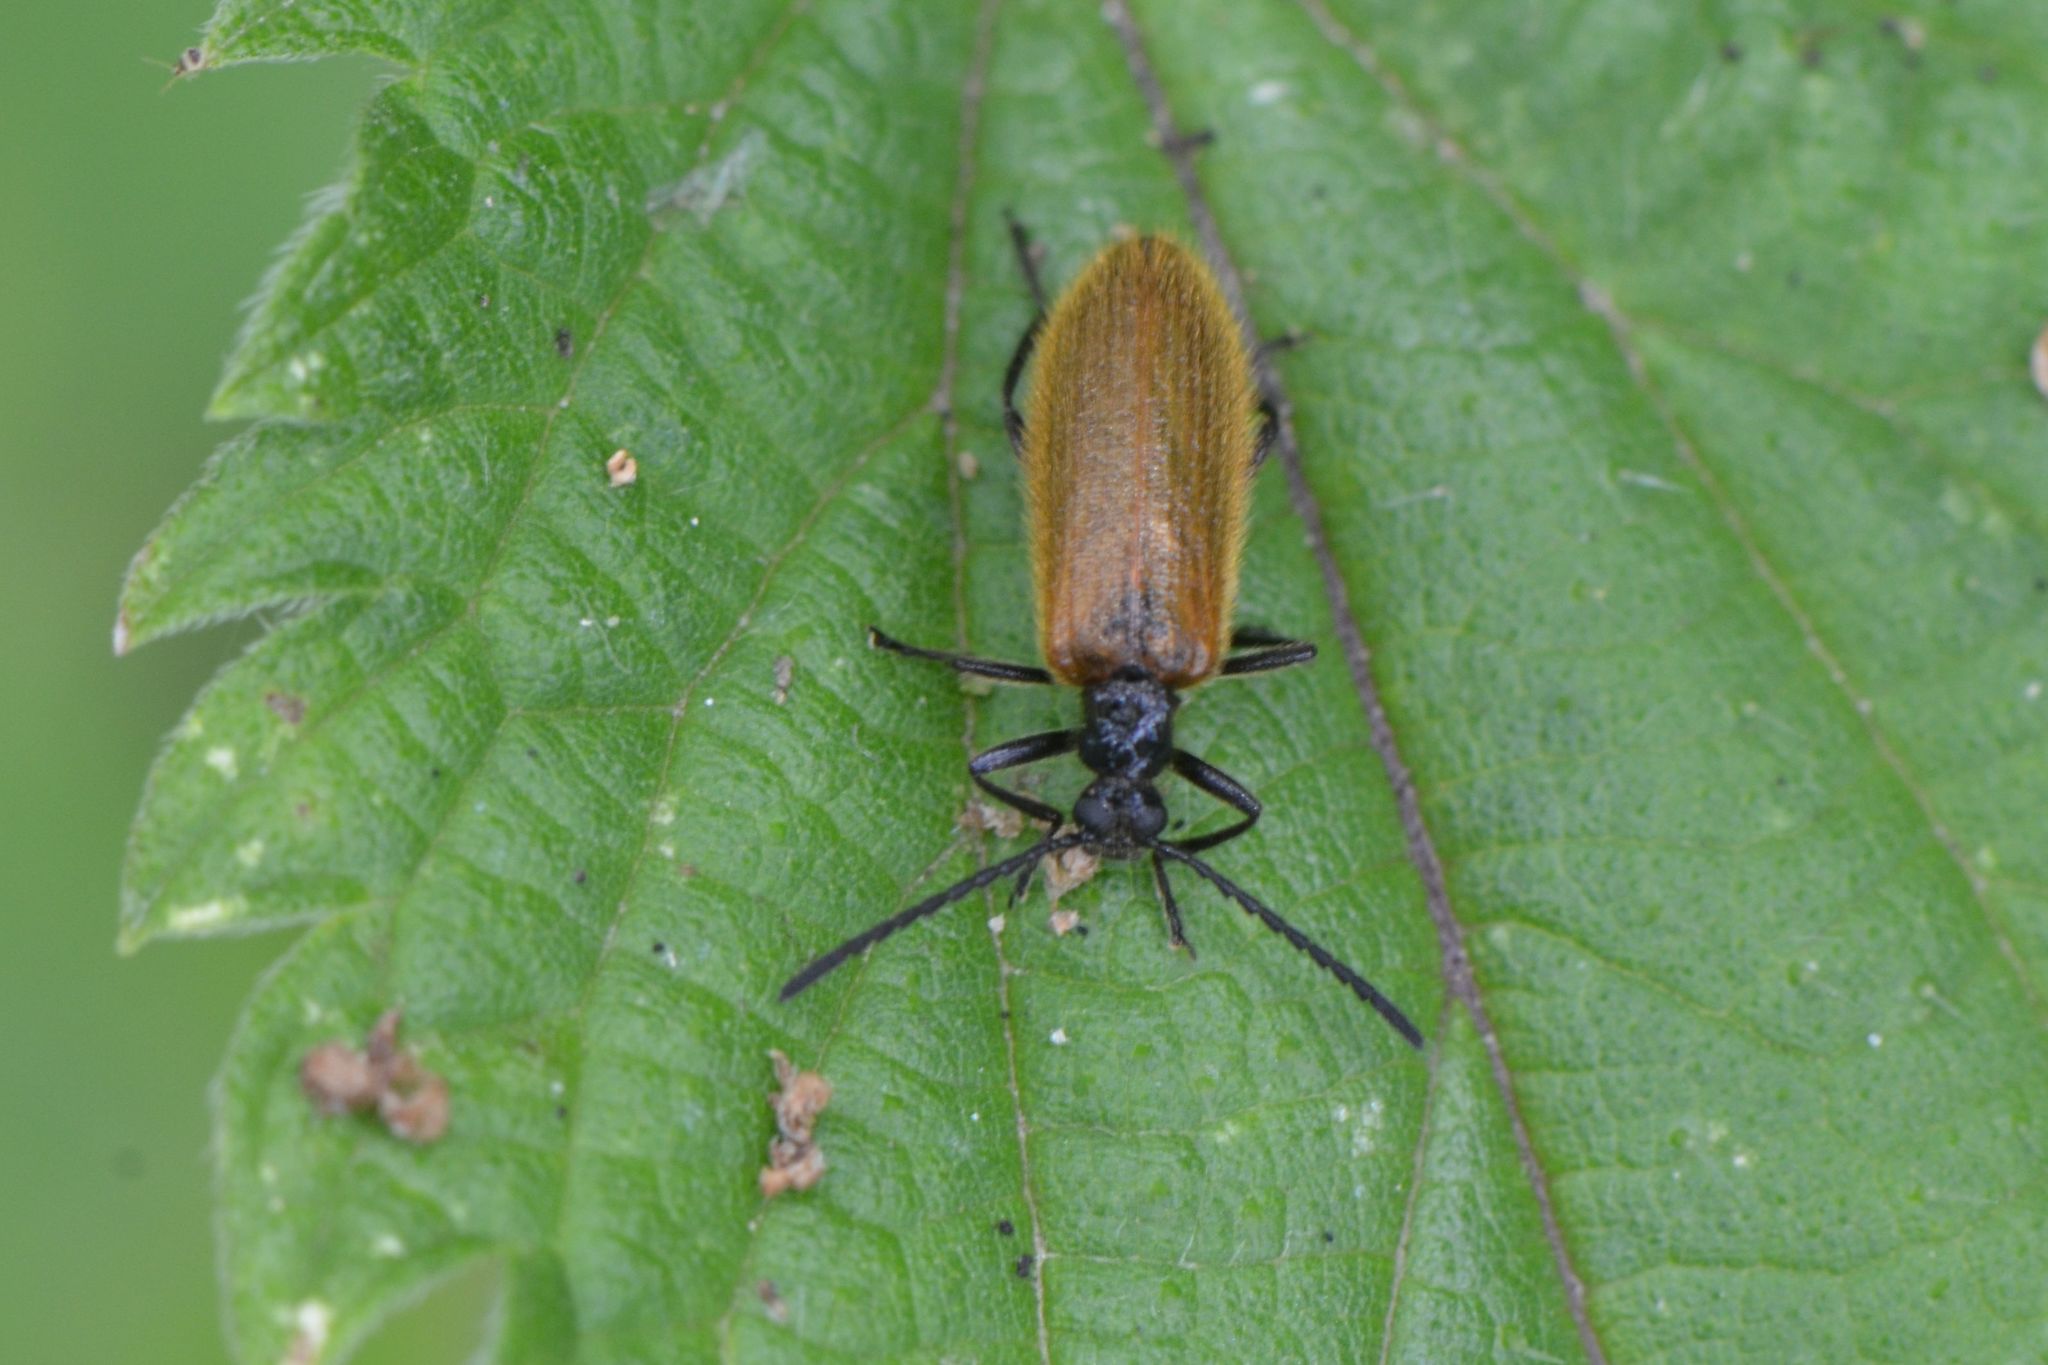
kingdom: Animalia
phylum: Arthropoda
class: Insecta
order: Coleoptera
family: Tenebrionidae
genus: Lagria
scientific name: Lagria hirta
